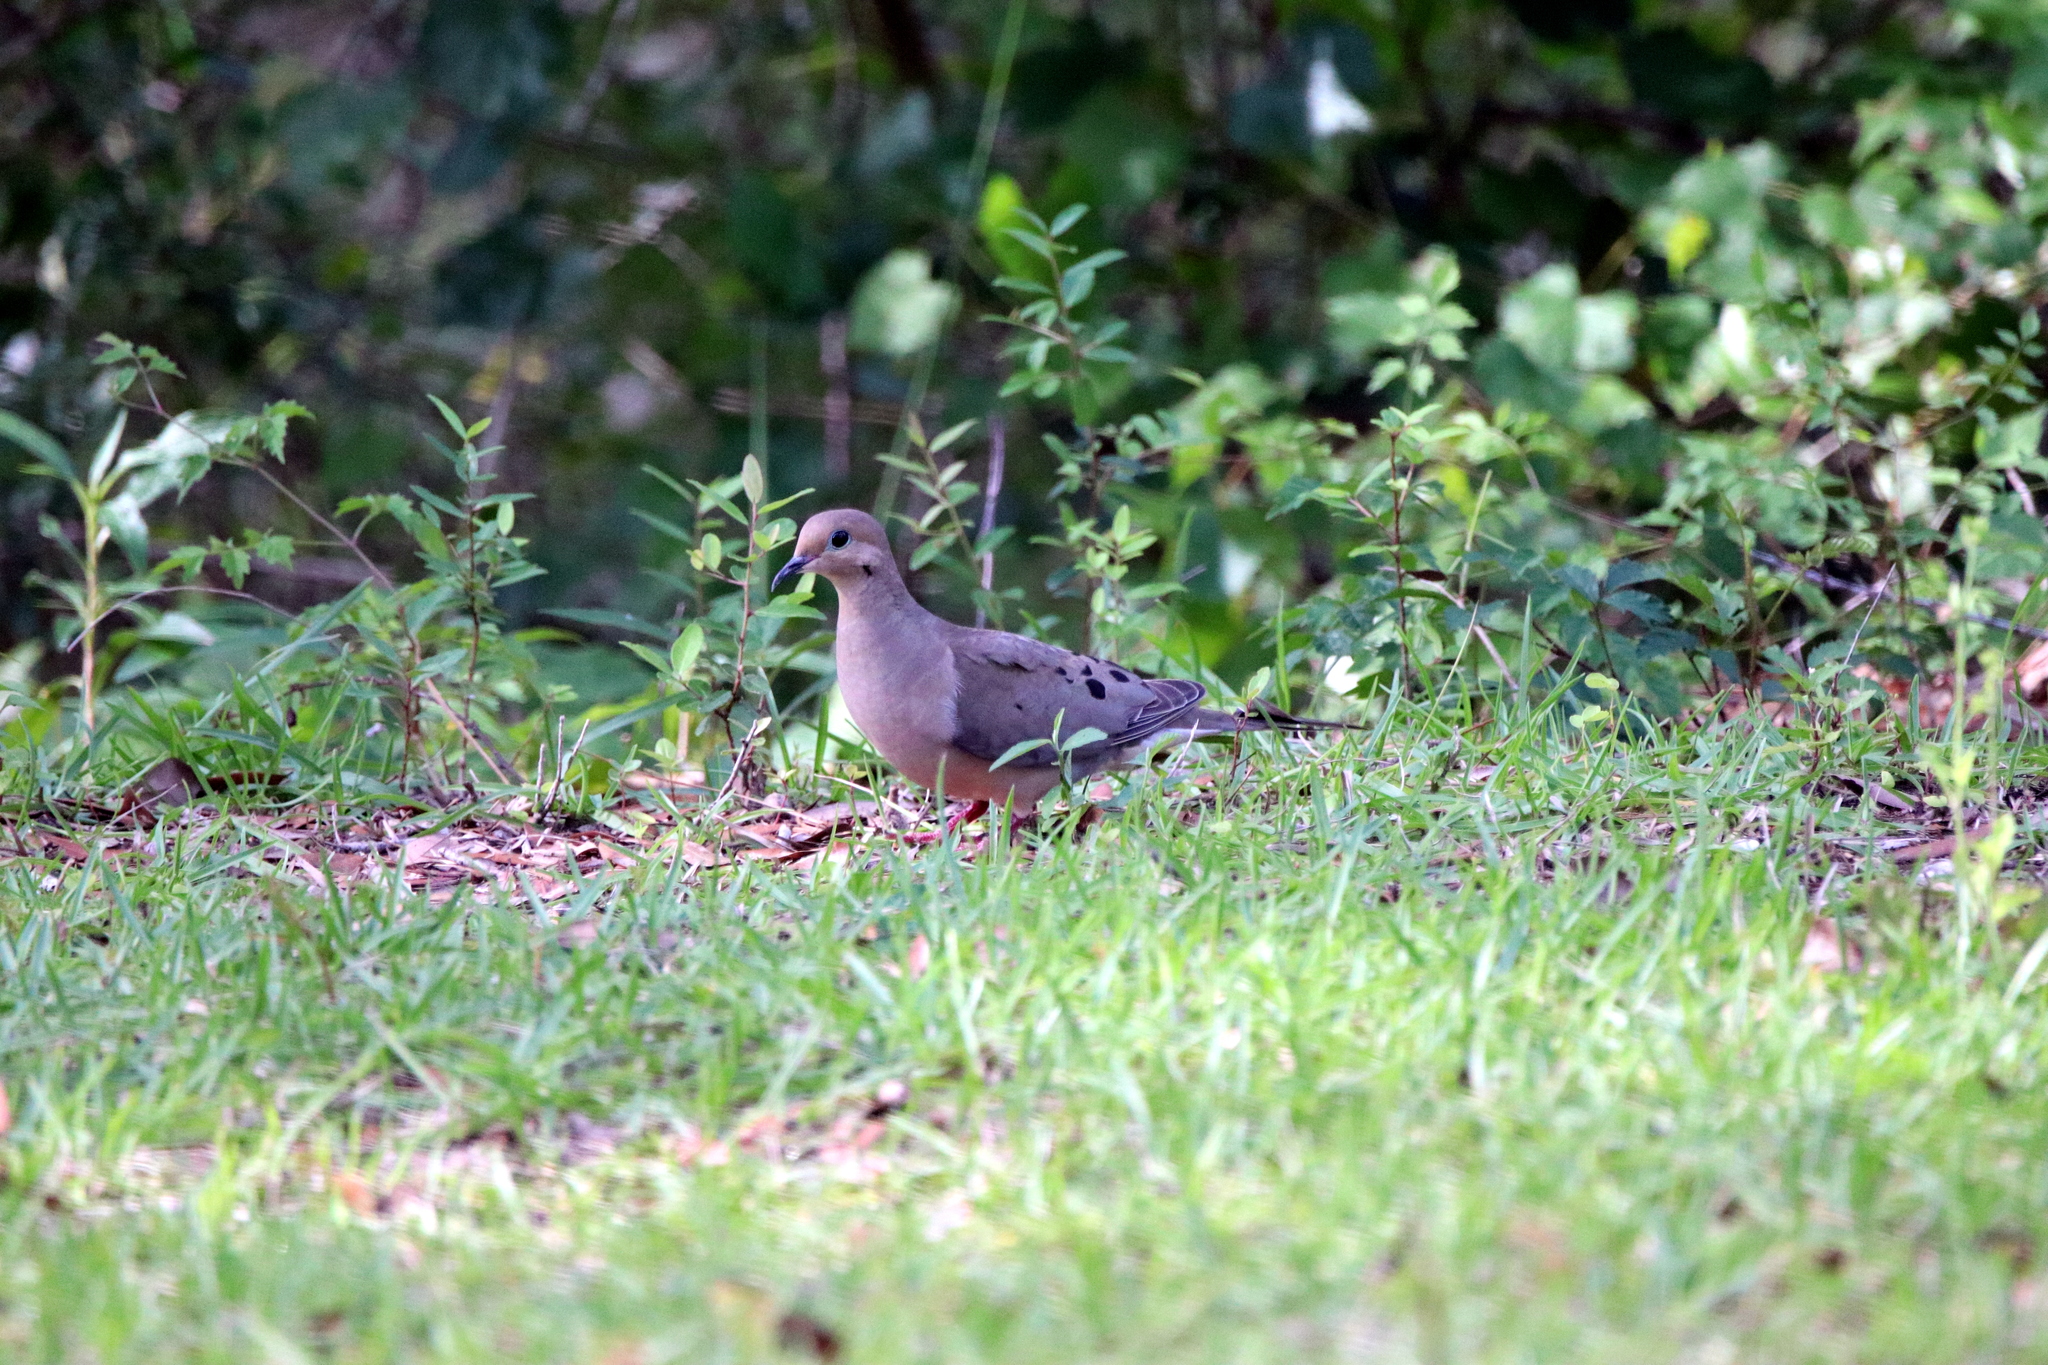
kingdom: Animalia
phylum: Chordata
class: Aves
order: Columbiformes
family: Columbidae
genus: Zenaida
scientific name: Zenaida macroura
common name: Mourning dove
